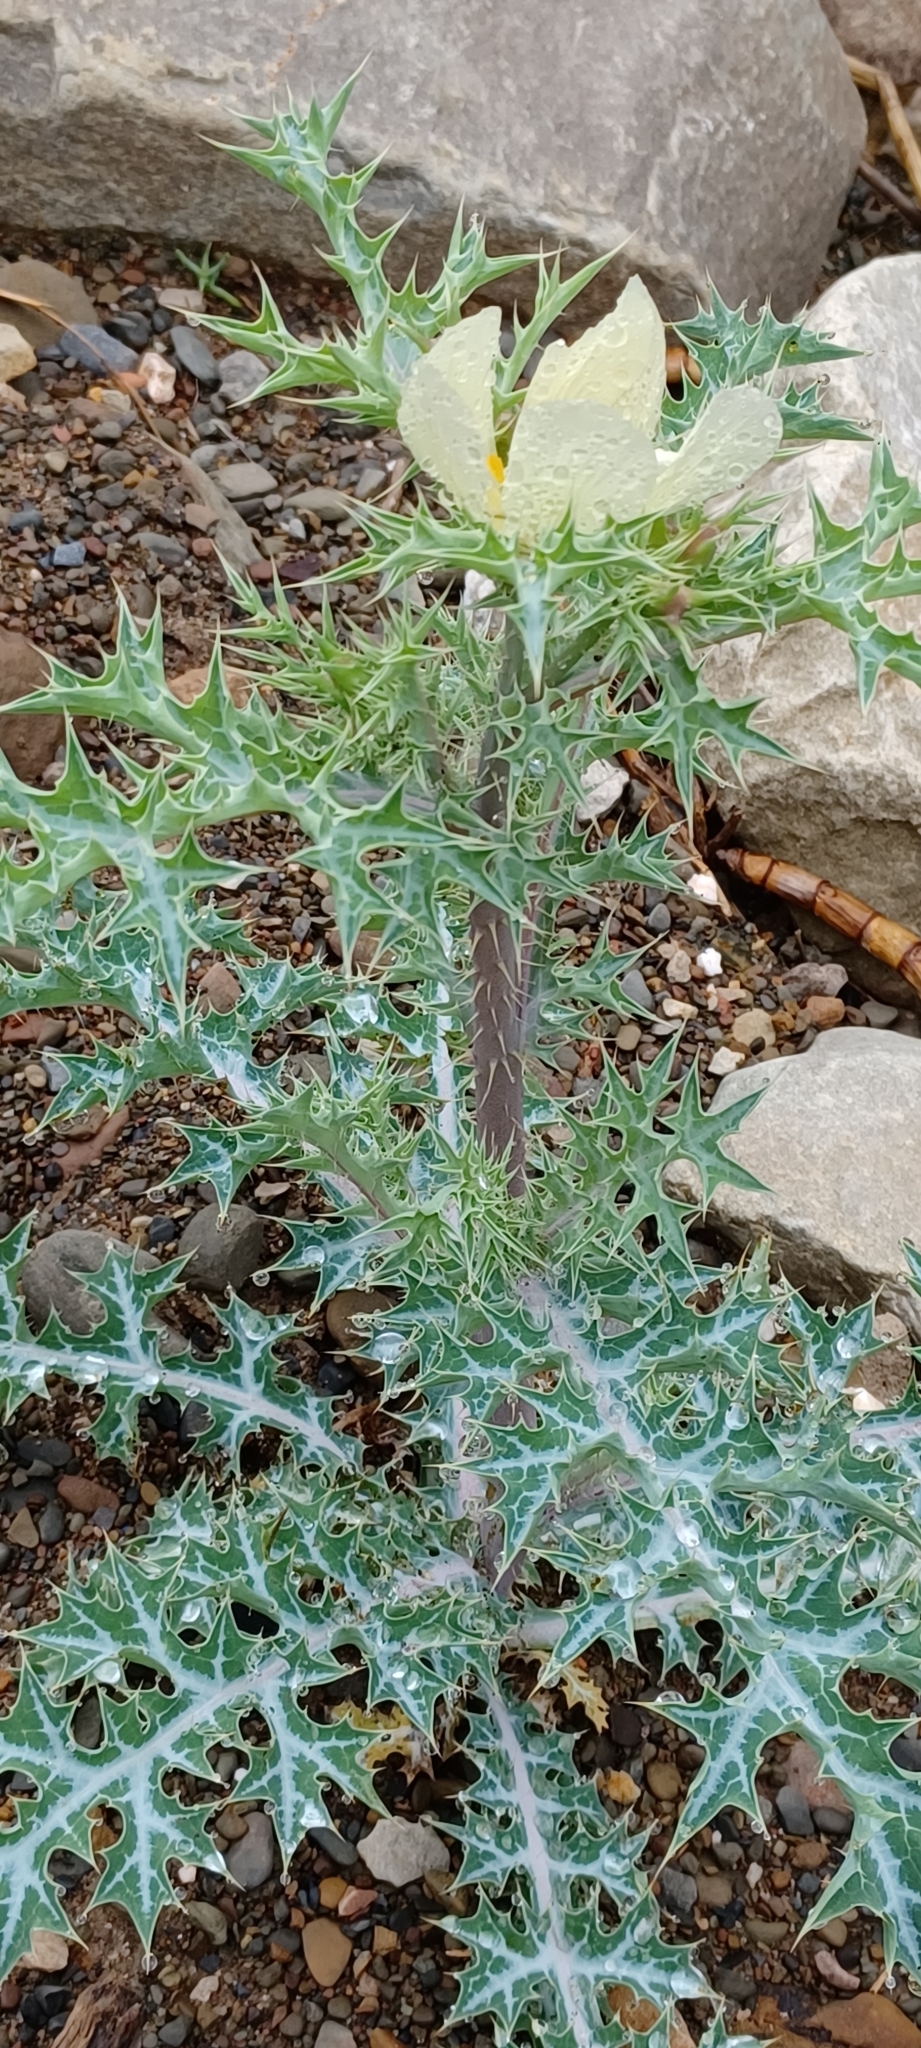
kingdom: Plantae
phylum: Tracheophyta
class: Magnoliopsida
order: Ranunculales
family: Papaveraceae
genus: Argemone
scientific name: Argemone ochroleuca
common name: White-flower mexican-poppy
